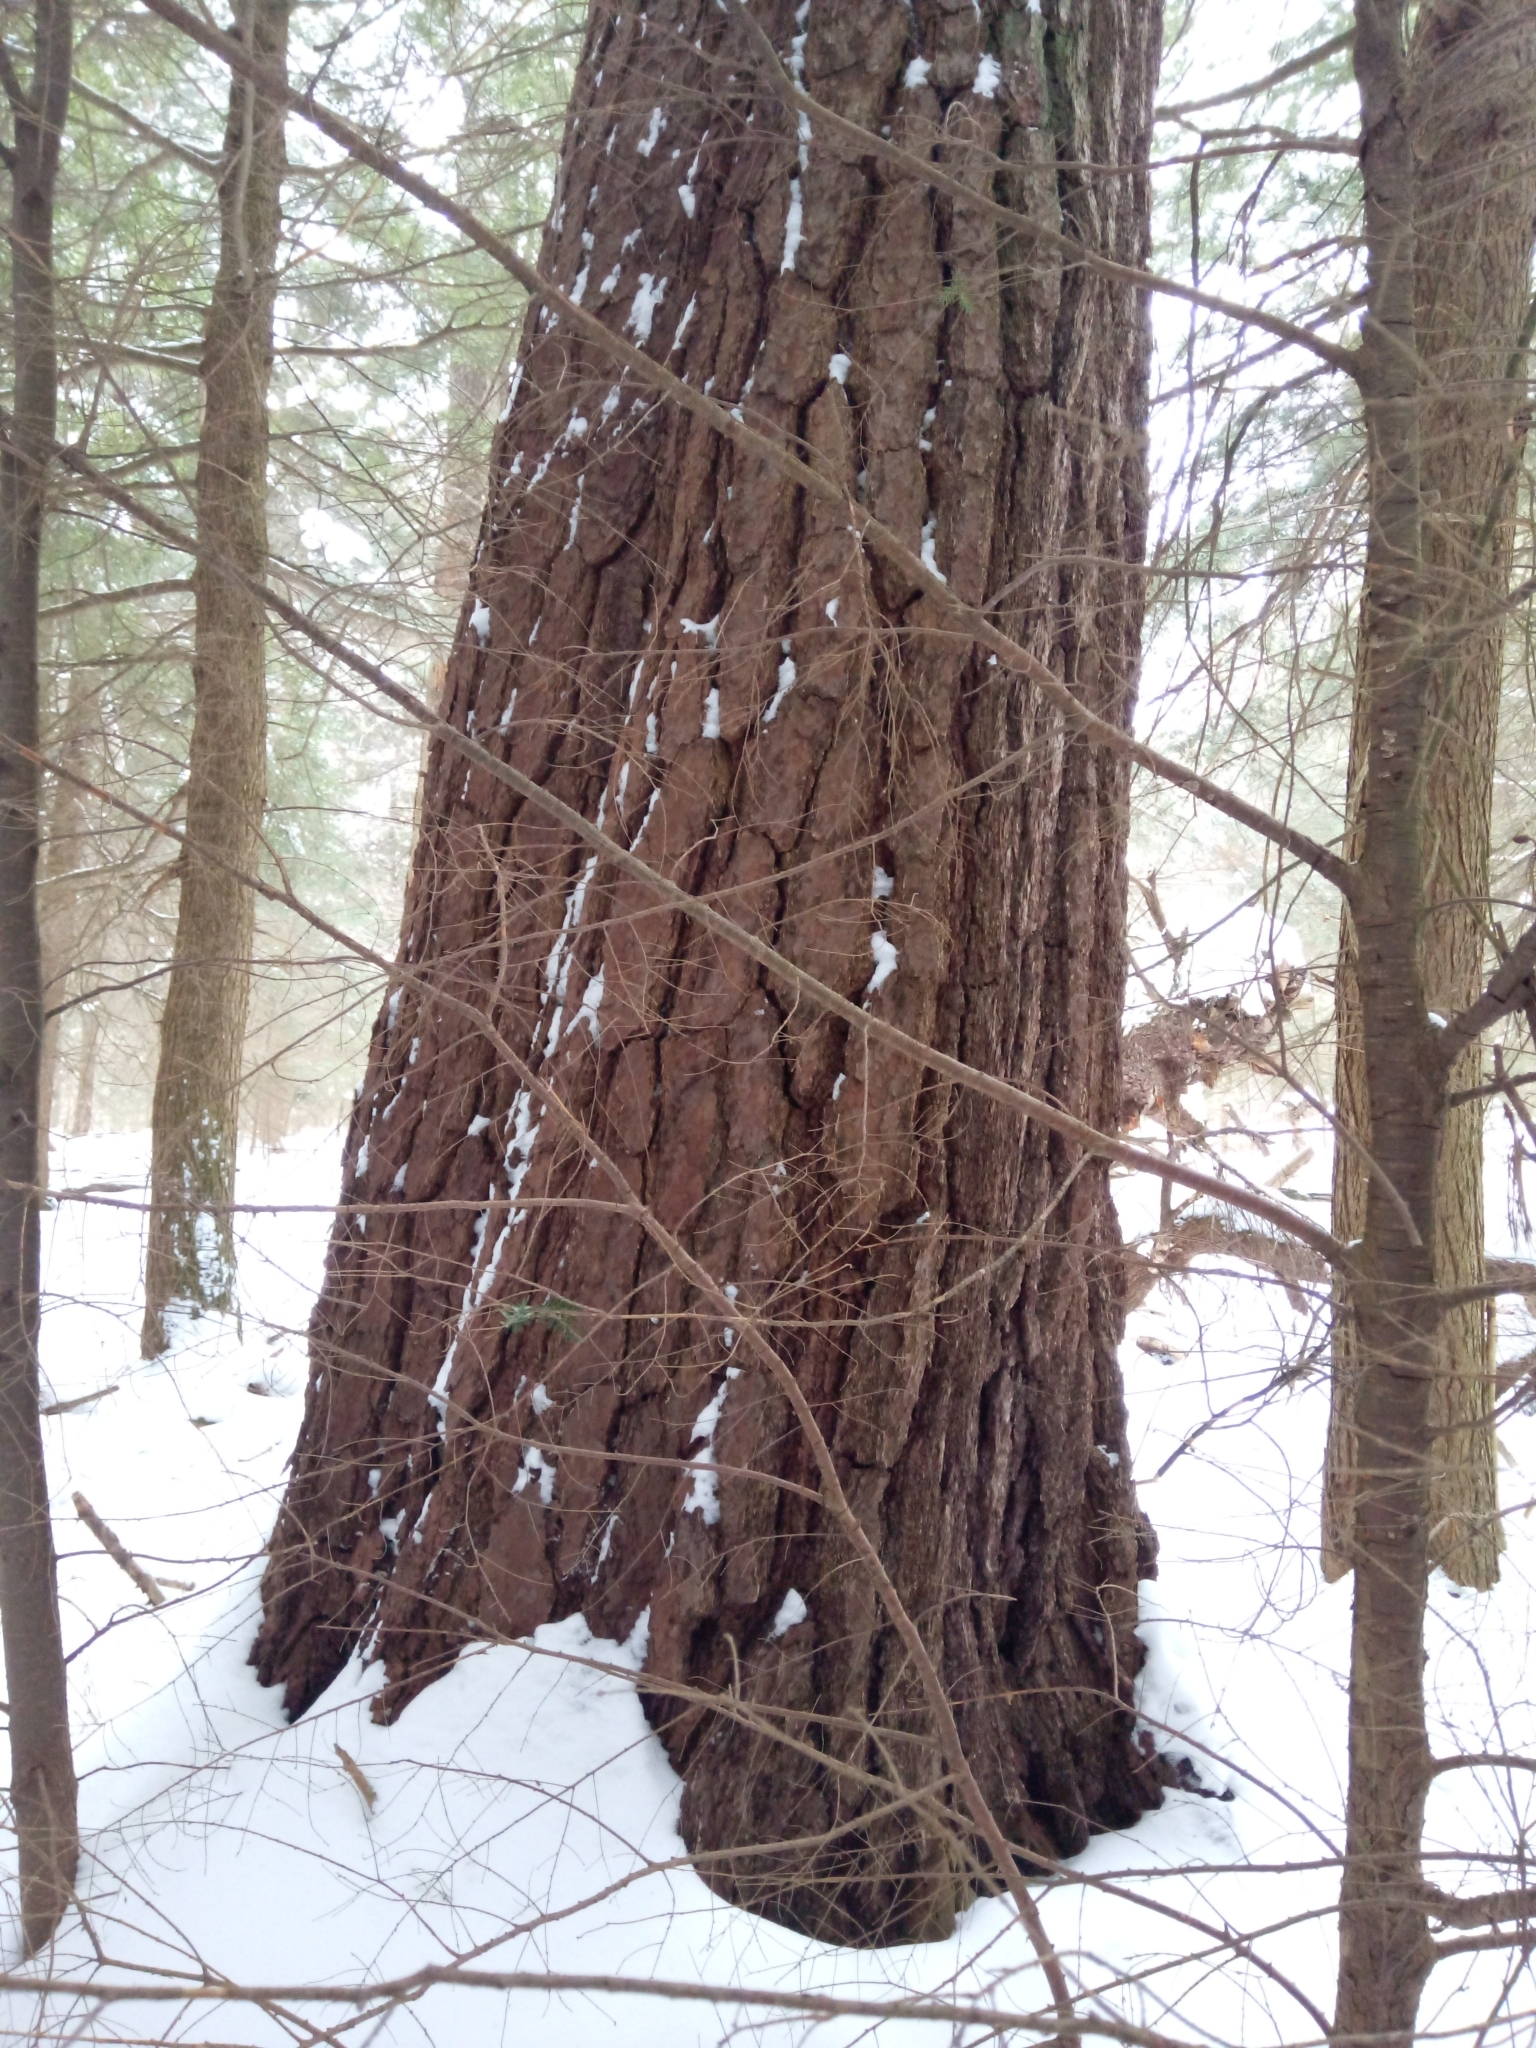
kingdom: Plantae
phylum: Tracheophyta
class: Pinopsida
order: Pinales
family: Pinaceae
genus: Pinus
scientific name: Pinus strobus
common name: Weymouth pine
